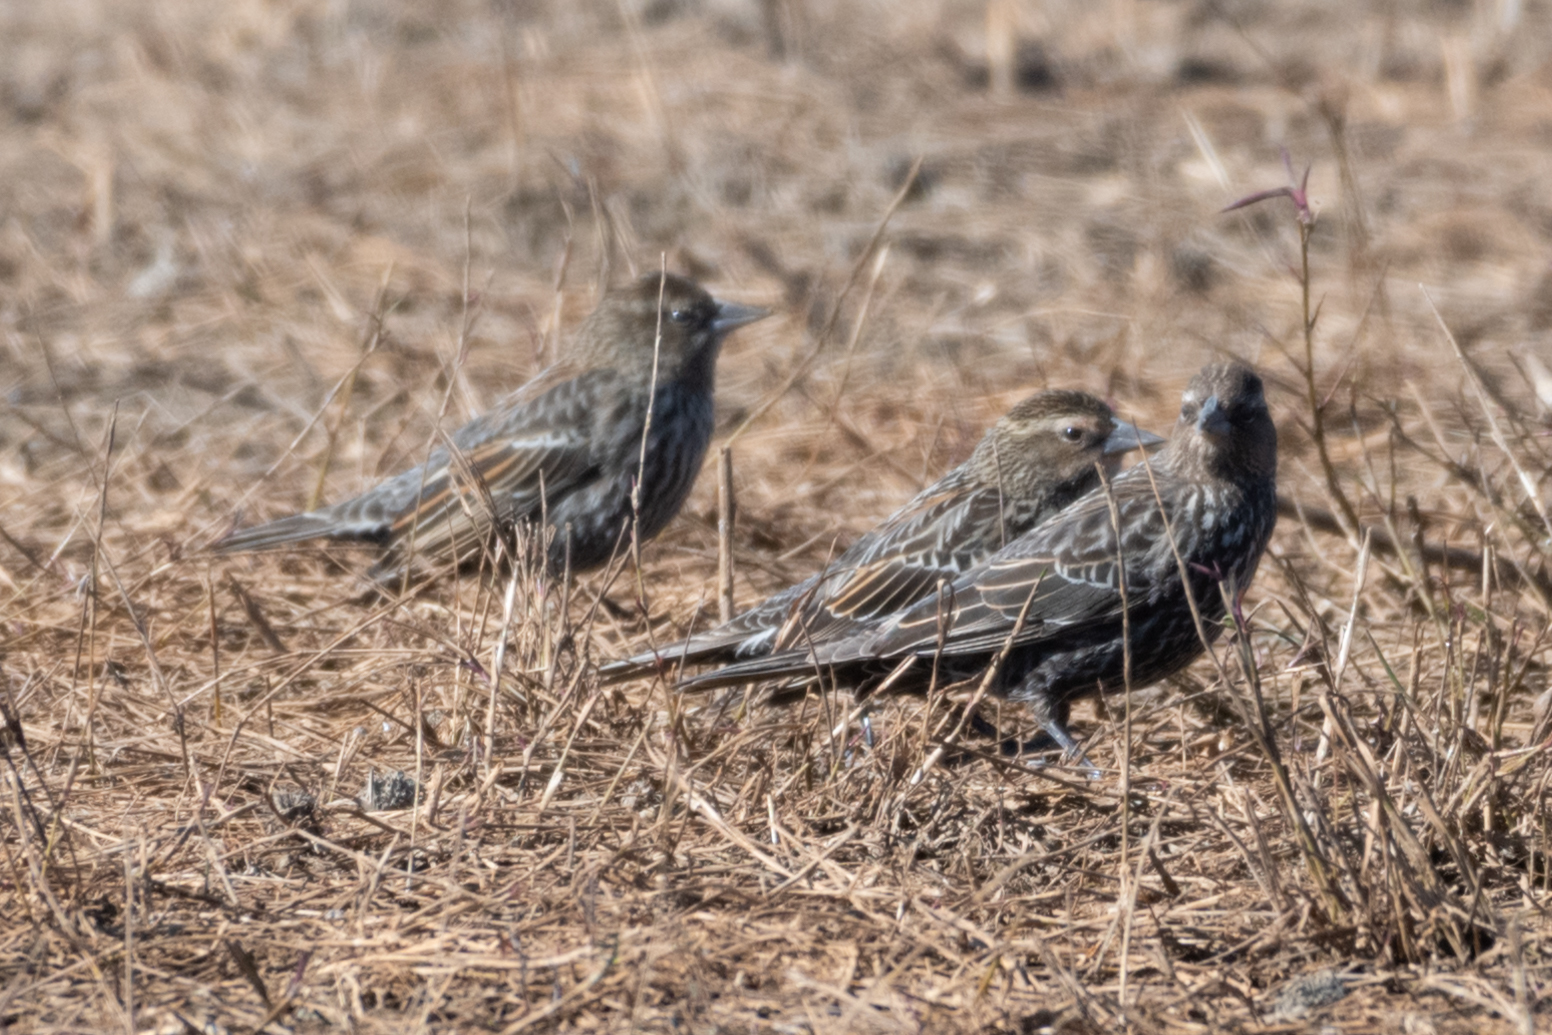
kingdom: Animalia
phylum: Chordata
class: Aves
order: Passeriformes
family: Icteridae
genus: Agelaius
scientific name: Agelaius phoeniceus
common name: Red-winged blackbird
